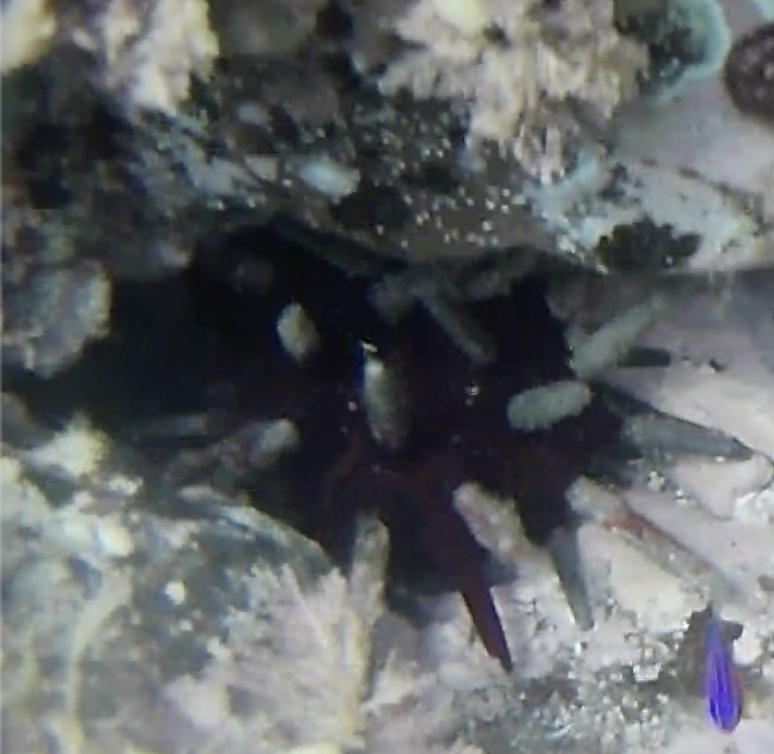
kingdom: Animalia
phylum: Echinodermata
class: Echinoidea
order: Cidaroida
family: Cidaridae
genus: Phyllacanthus
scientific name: Phyllacanthus parvispinus
